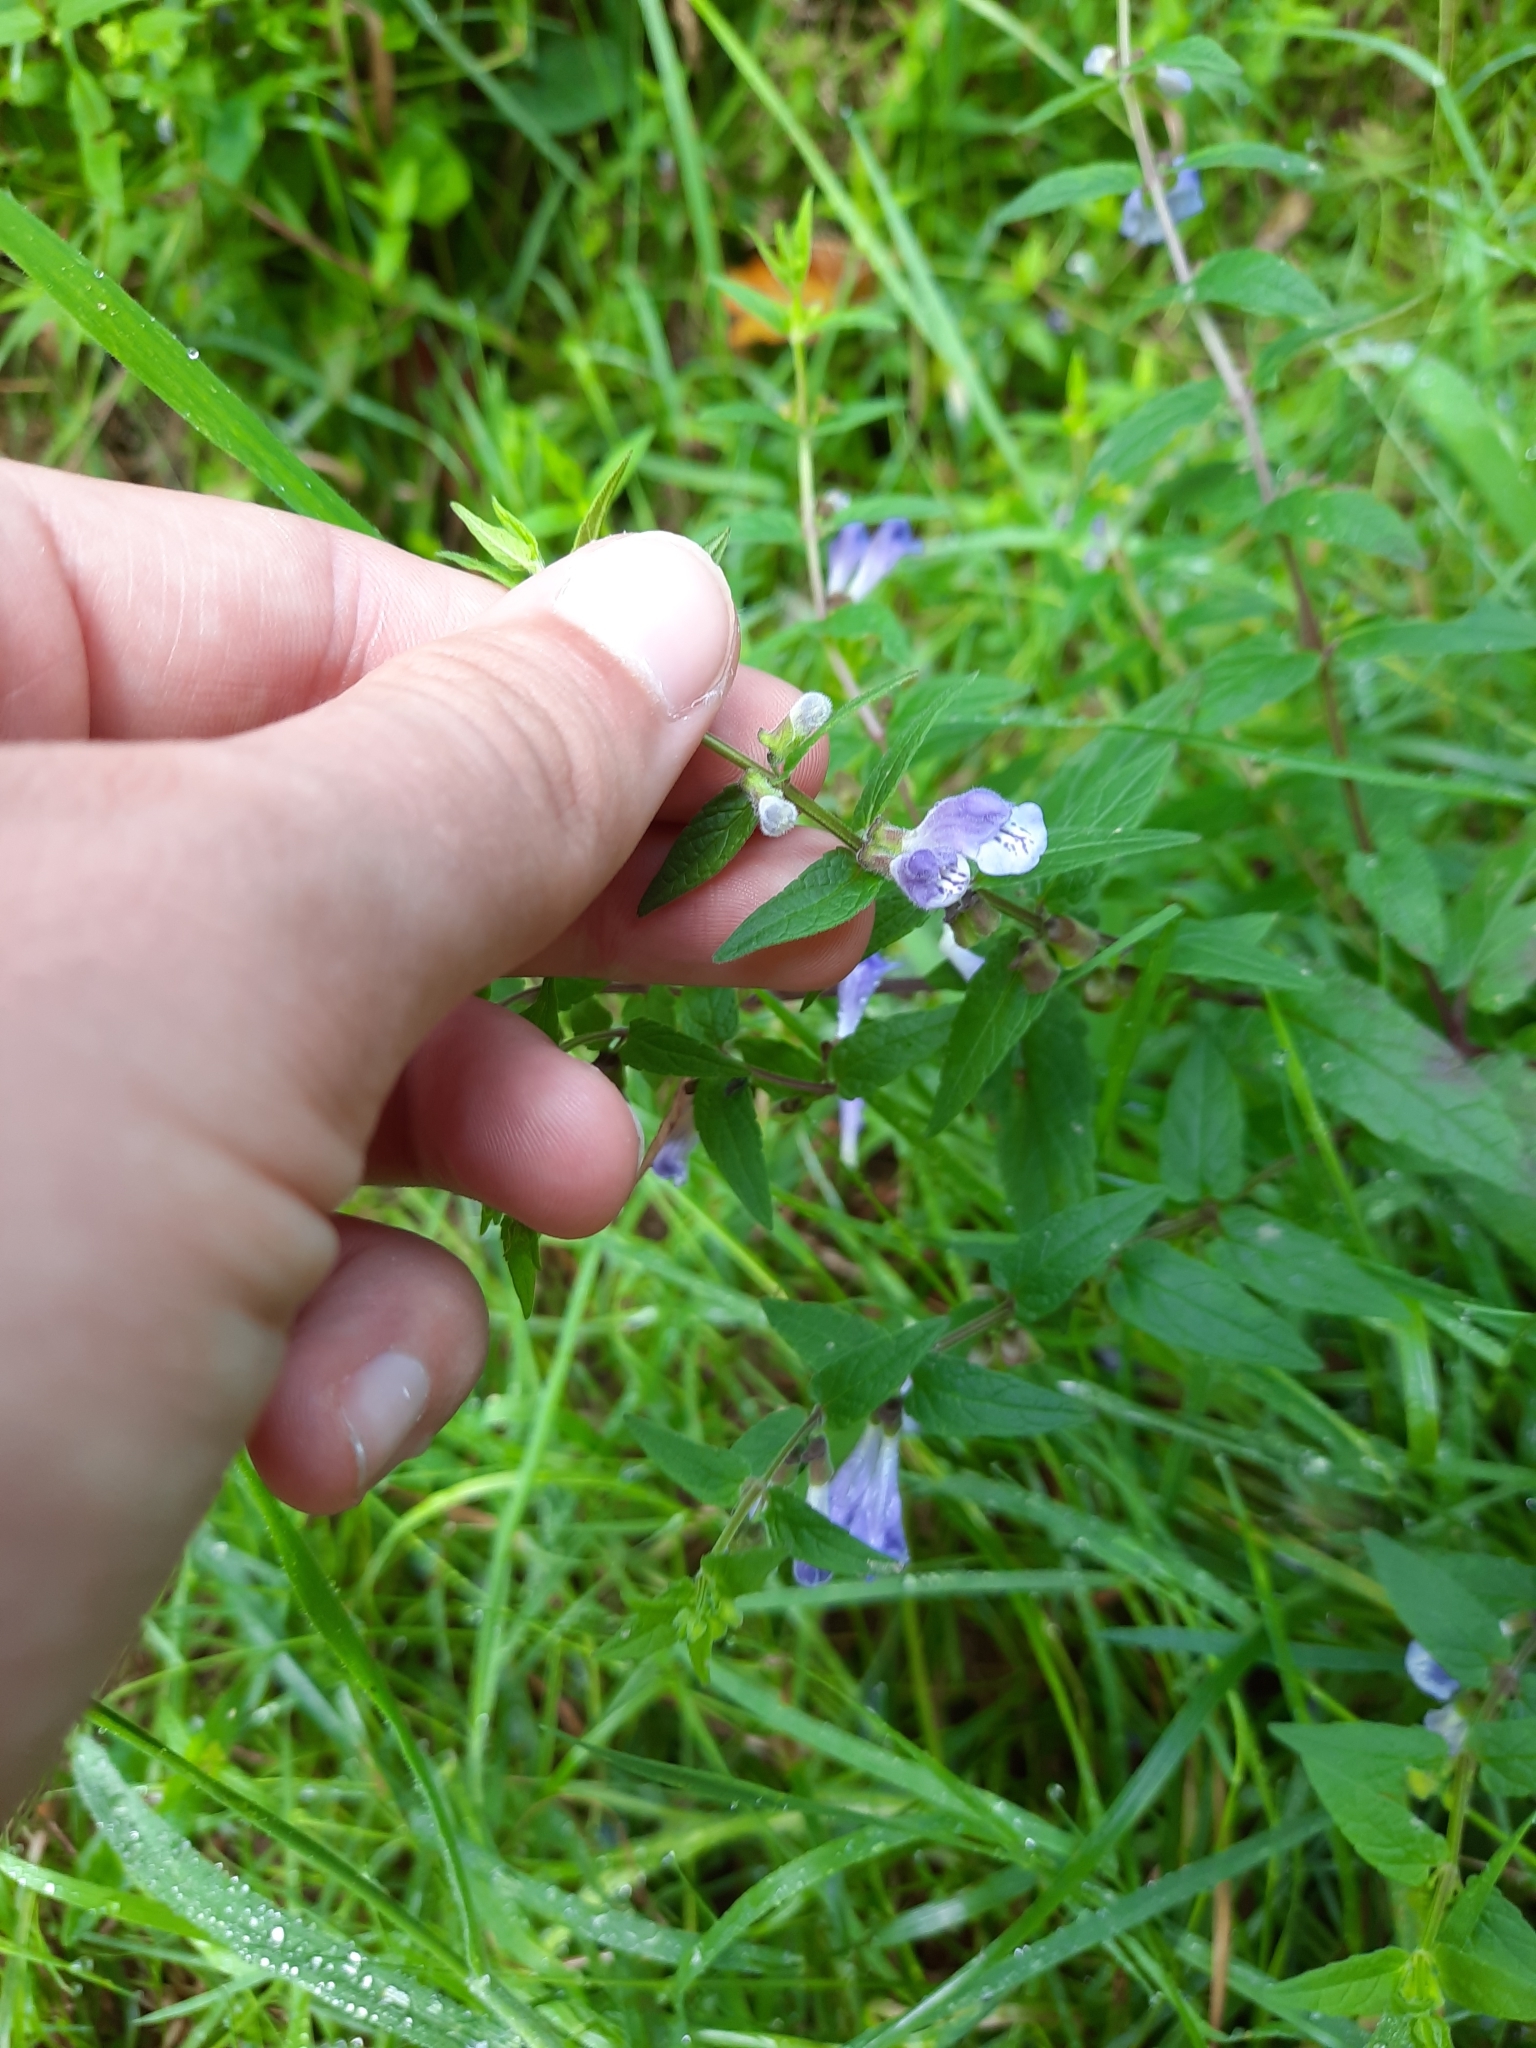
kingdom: Plantae
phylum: Tracheophyta
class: Magnoliopsida
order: Lamiales
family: Lamiaceae
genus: Scutellaria
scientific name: Scutellaria galericulata
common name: Skullcap
